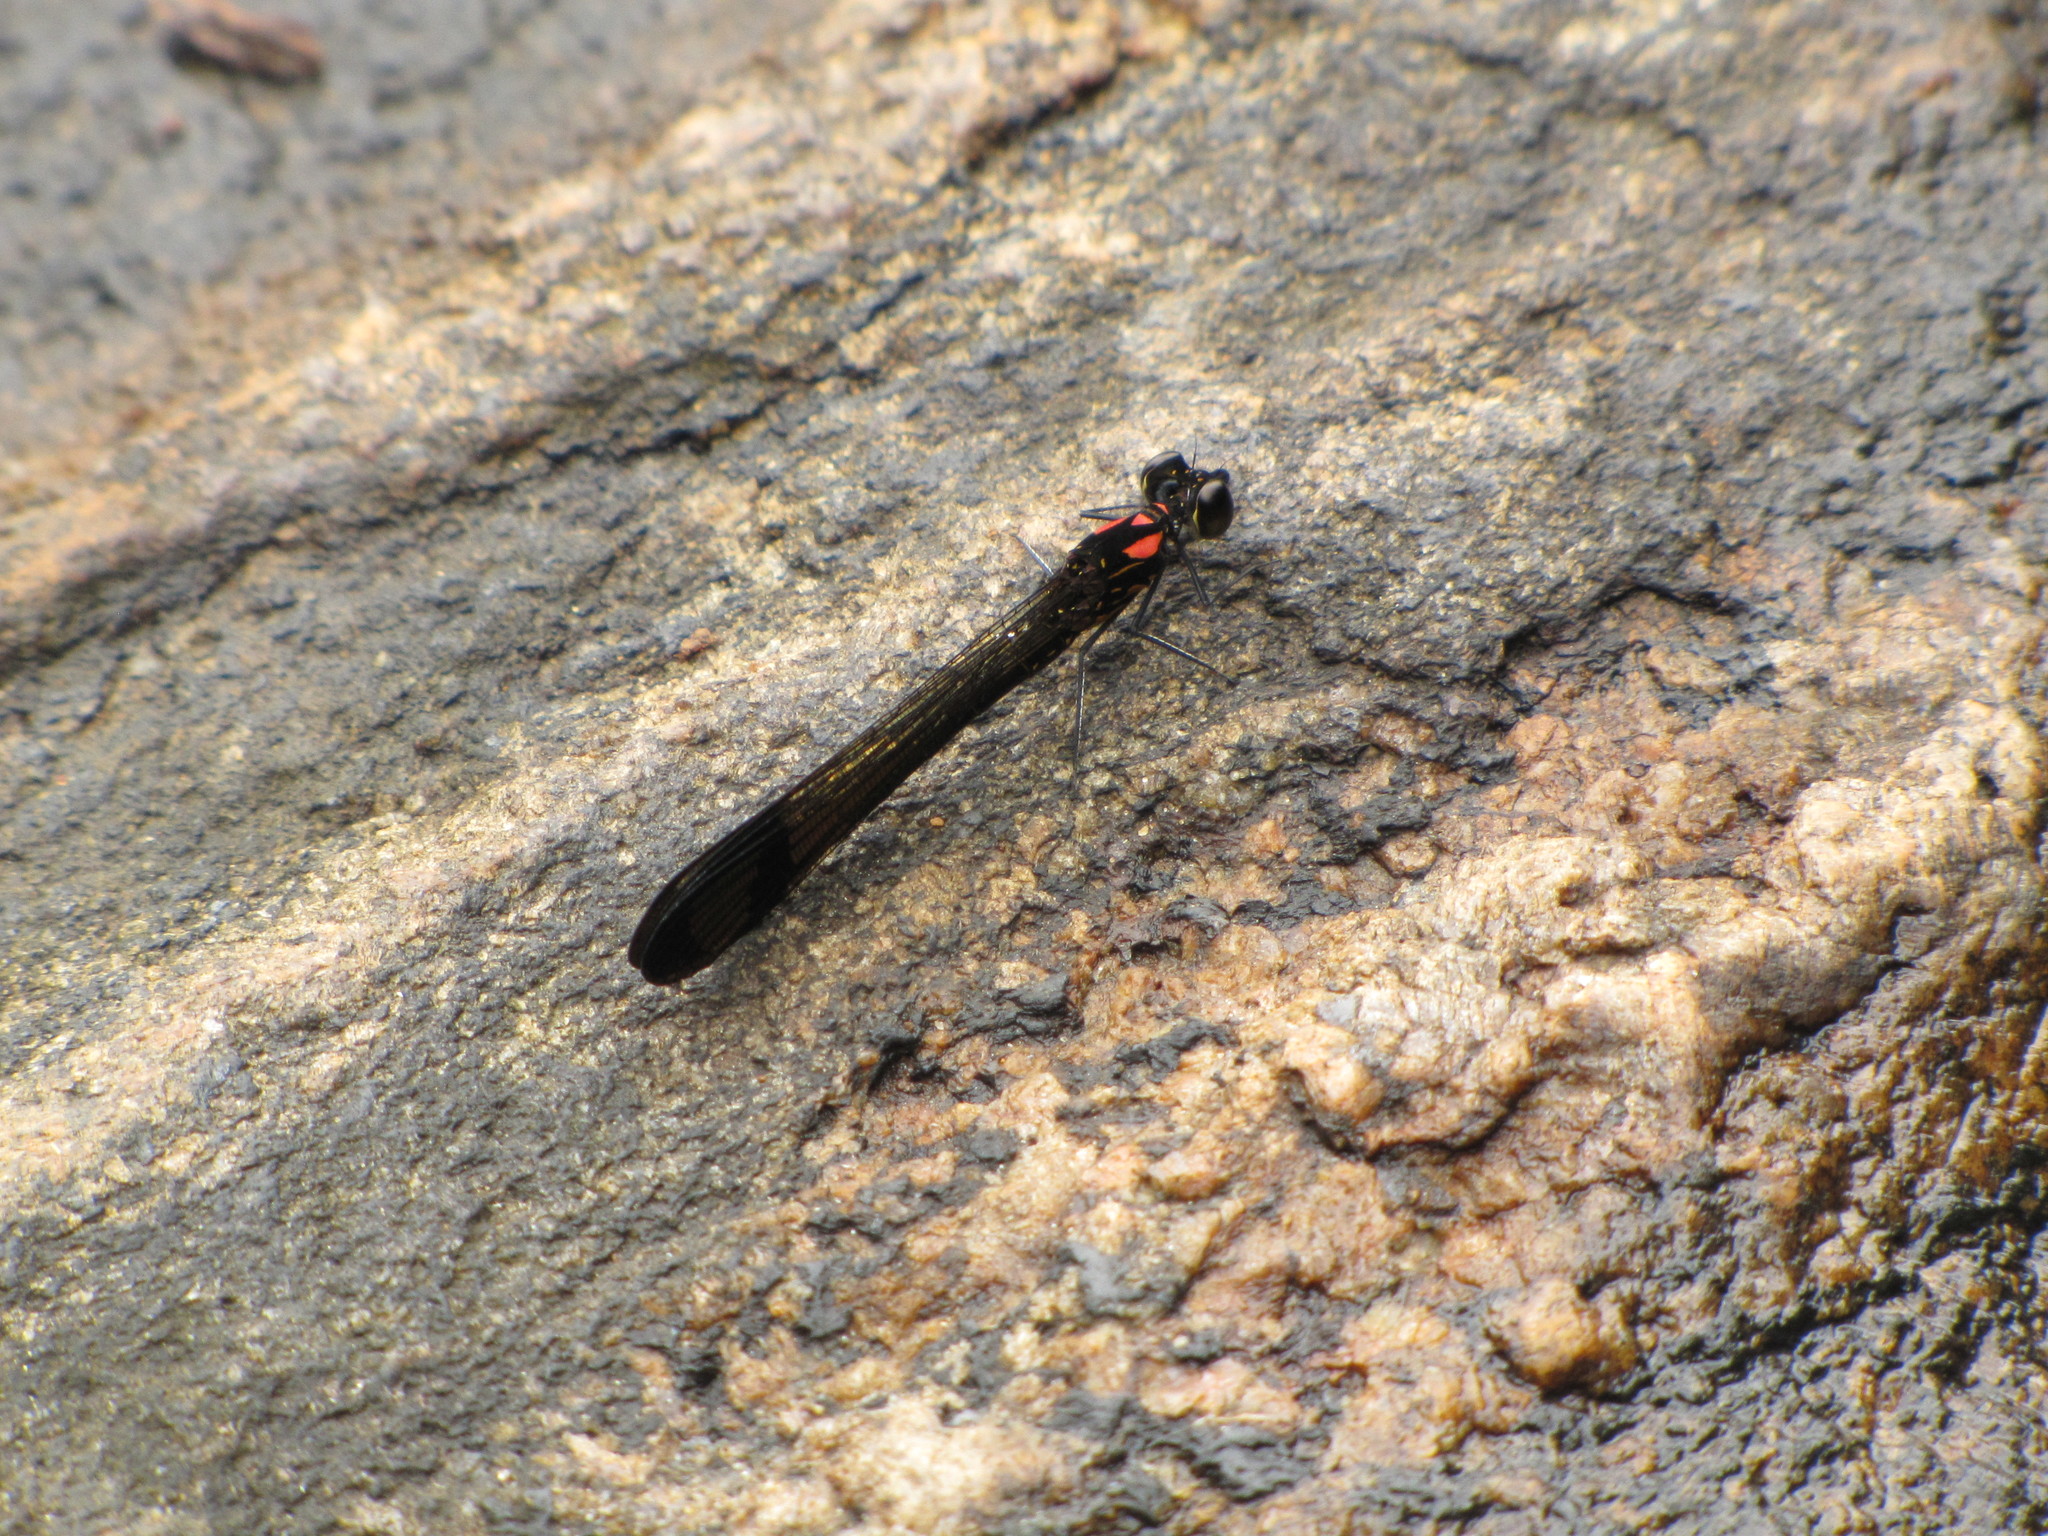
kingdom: Animalia
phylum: Arthropoda
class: Insecta
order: Odonata
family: Chlorocyphidae
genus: Heliocypha
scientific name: Heliocypha bisignata
